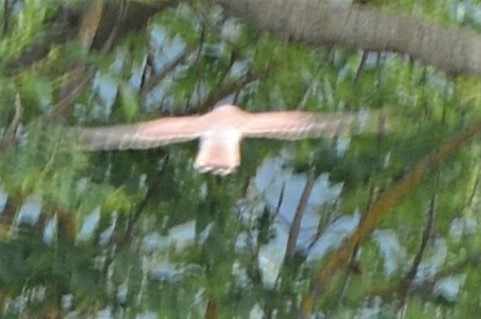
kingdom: Animalia
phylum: Chordata
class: Aves
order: Falconiformes
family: Falconidae
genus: Falco
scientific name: Falco tinnunculus
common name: Common kestrel
